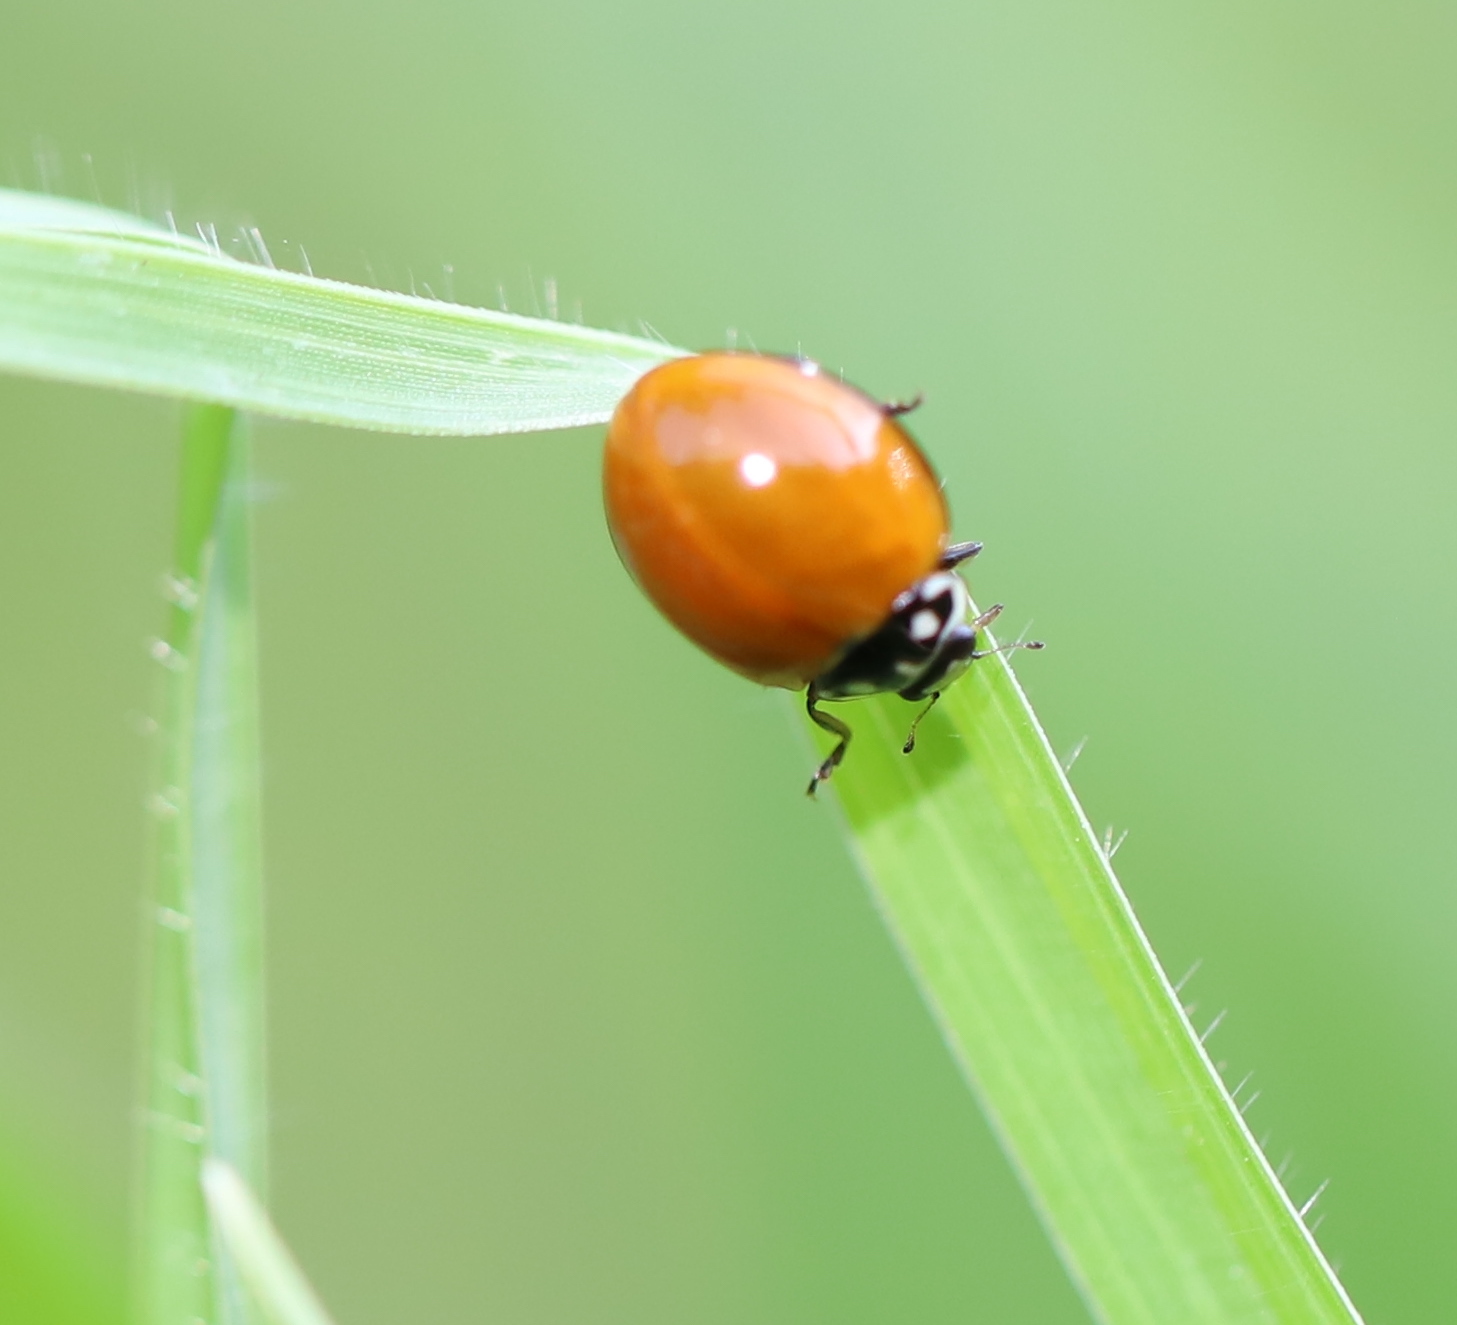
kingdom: Animalia
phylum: Arthropoda
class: Insecta
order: Coleoptera
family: Coccinellidae
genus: Cycloneda
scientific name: Cycloneda sanguinea
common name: Ladybird beetle
